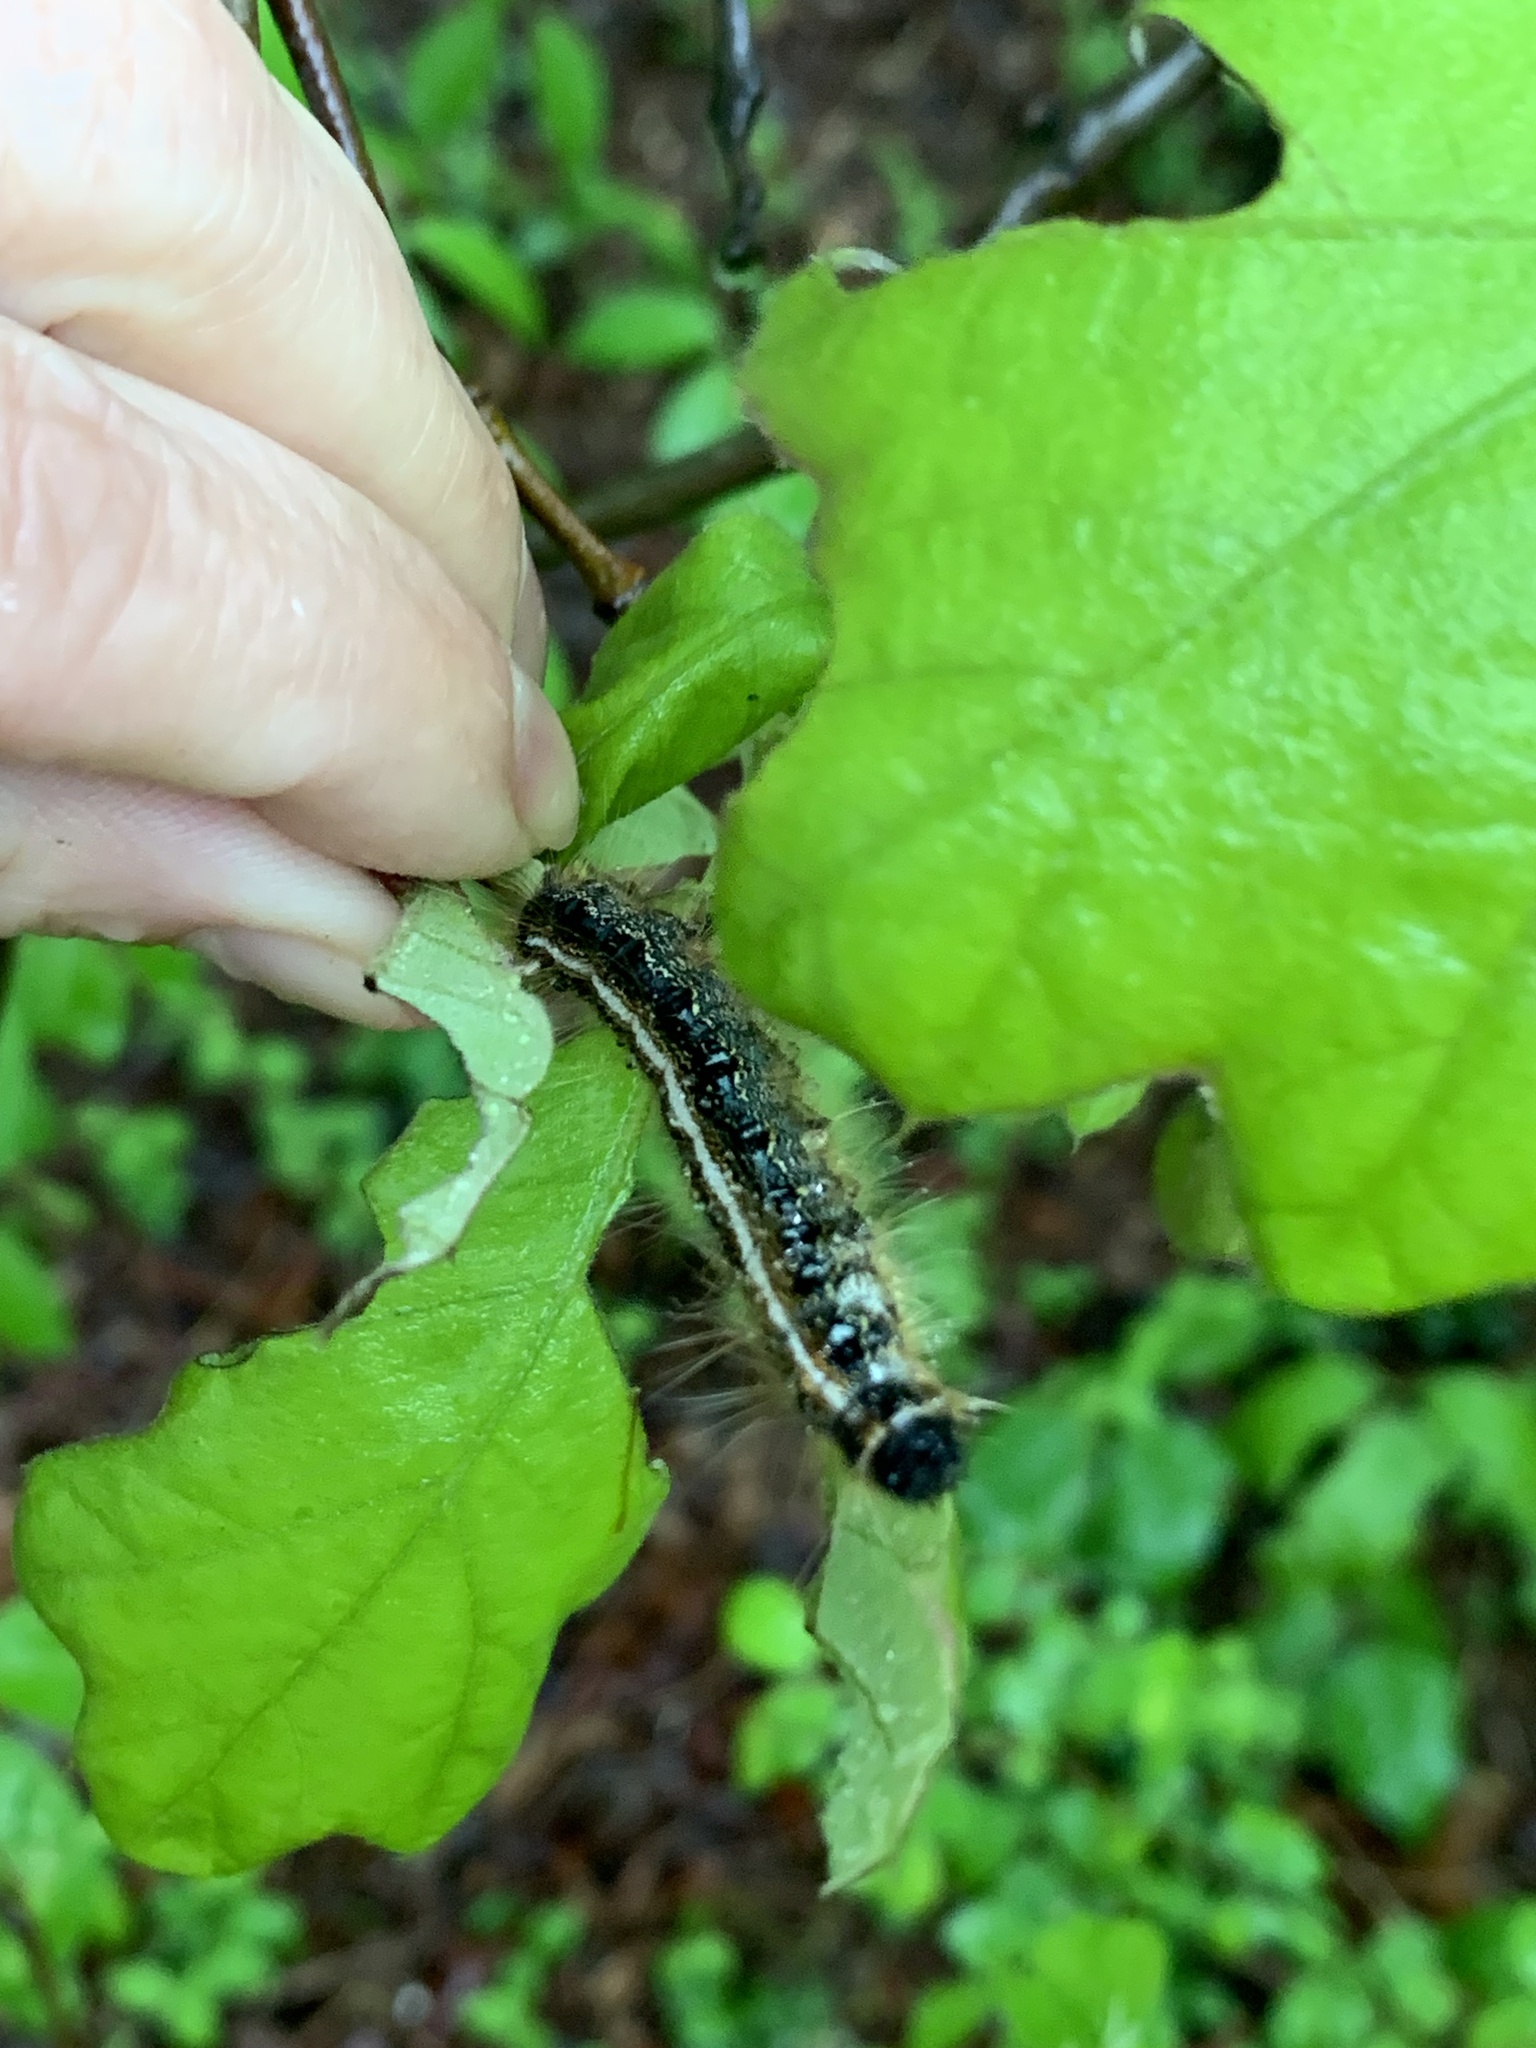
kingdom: Animalia
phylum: Arthropoda
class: Insecta
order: Lepidoptera
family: Lasiocampidae
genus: Malacosoma
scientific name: Malacosoma americana
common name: Eastern tent caterpillar moth
